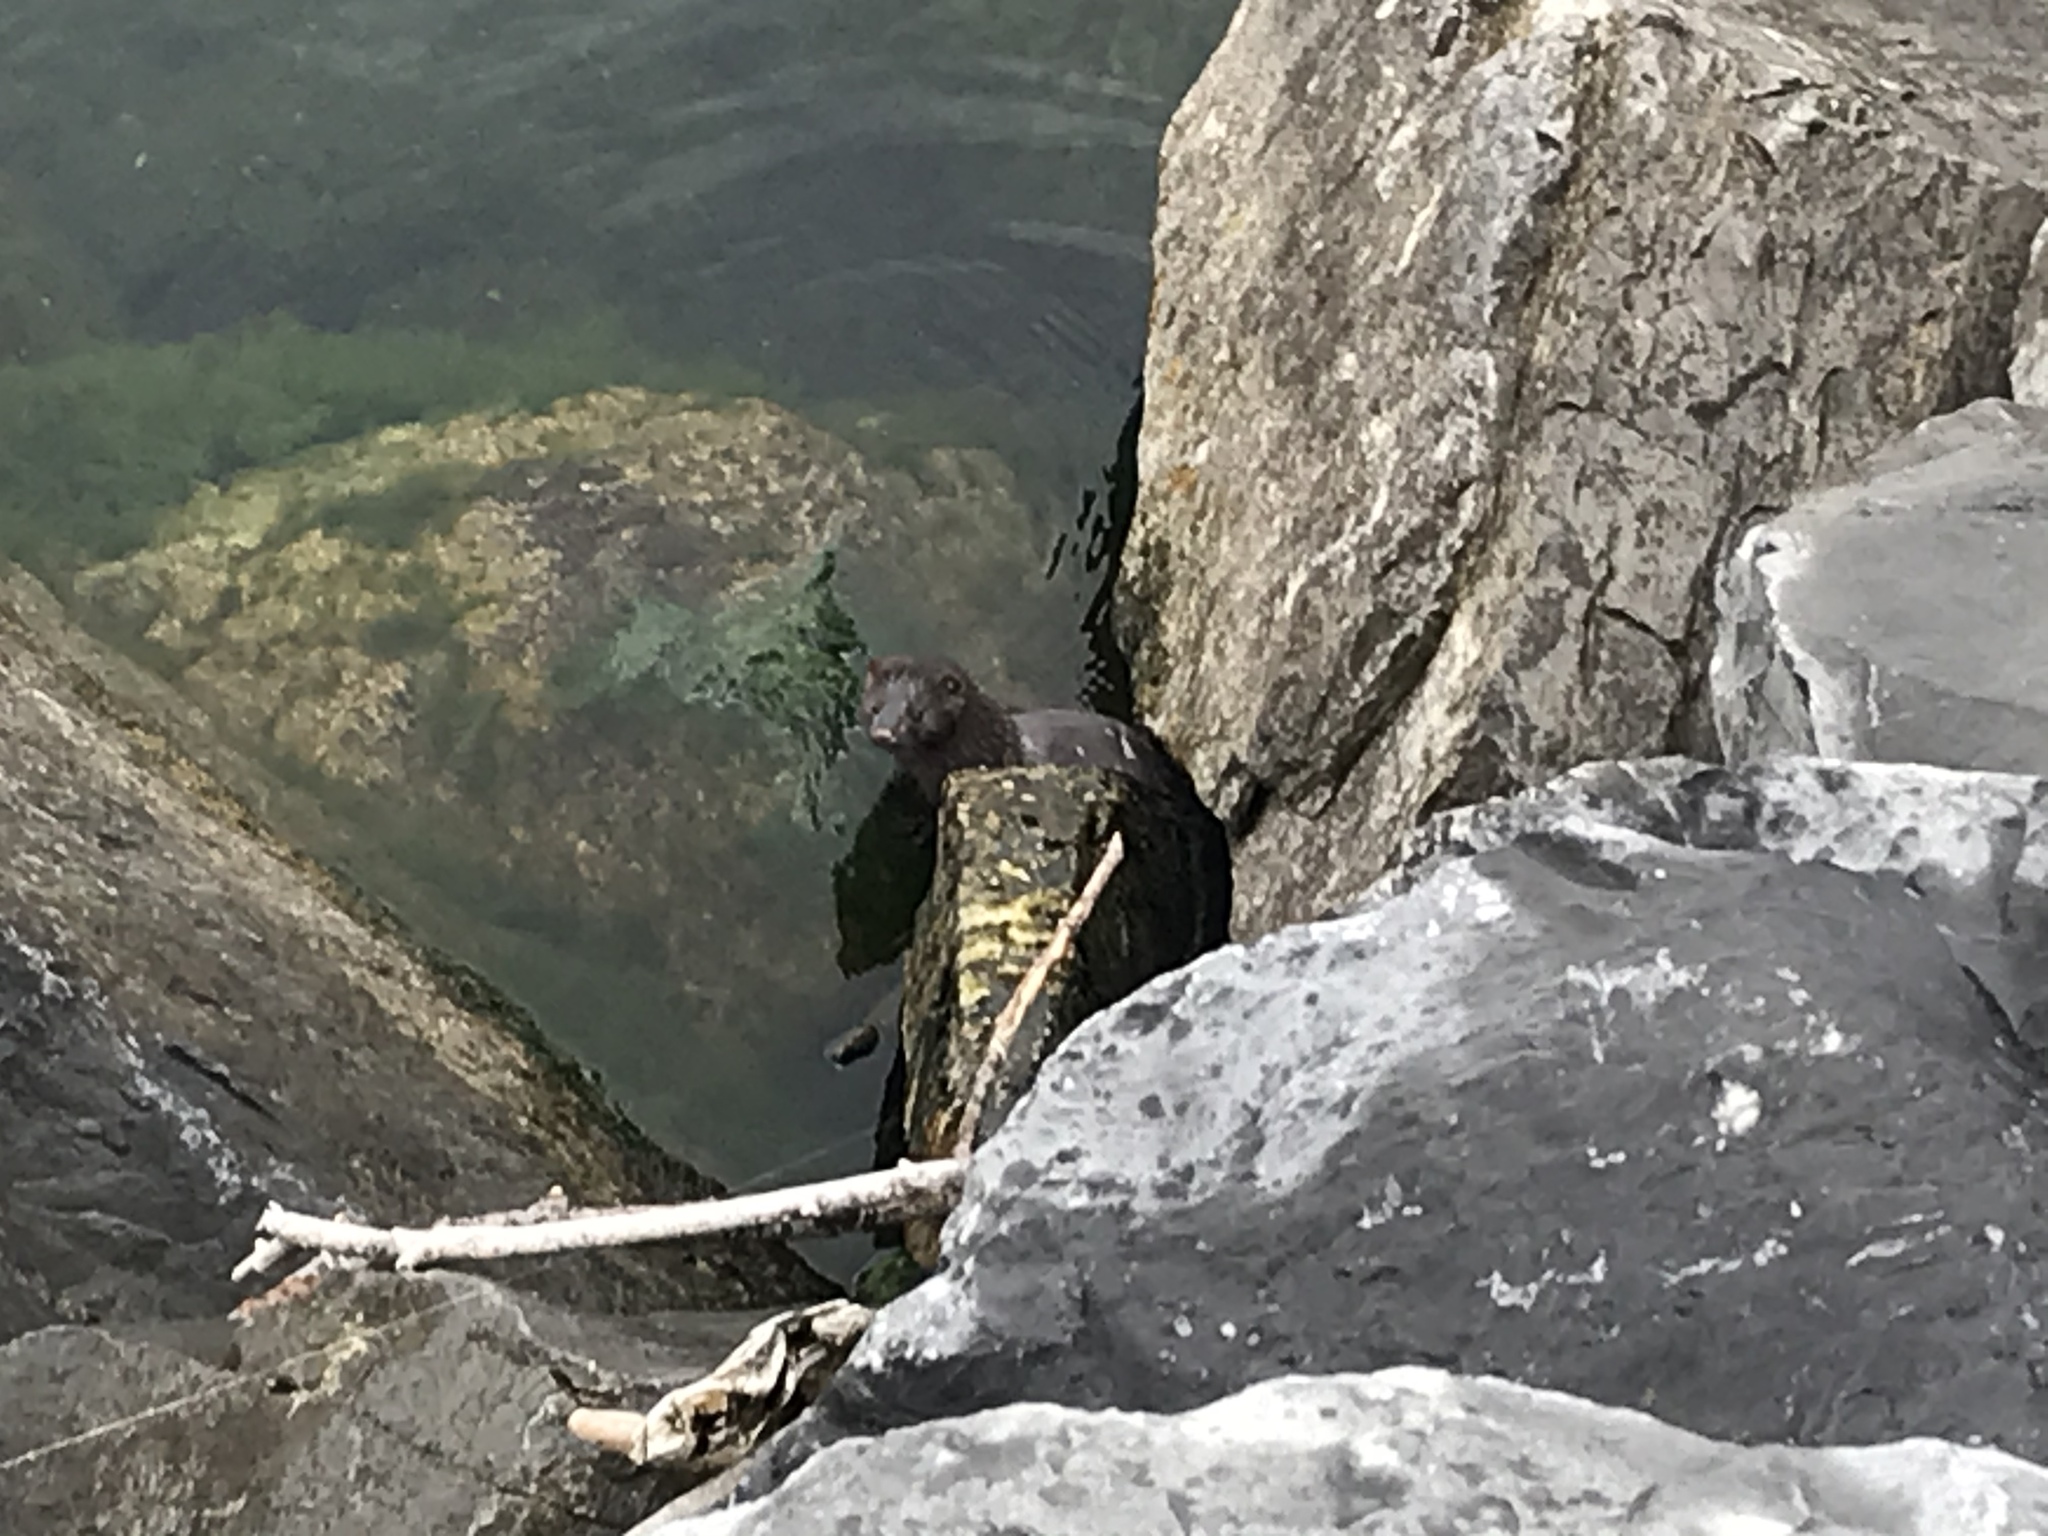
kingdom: Animalia
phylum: Chordata
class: Mammalia
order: Carnivora
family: Mustelidae
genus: Mustela
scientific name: Mustela
